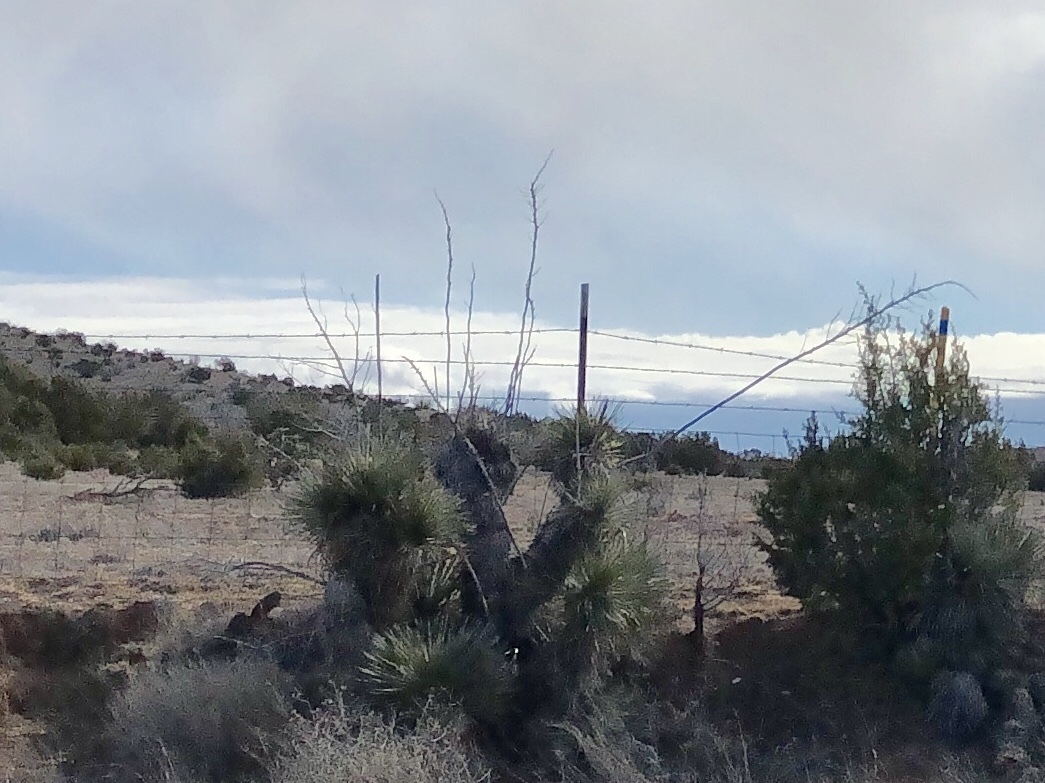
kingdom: Plantae
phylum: Tracheophyta
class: Liliopsida
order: Asparagales
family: Asparagaceae
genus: Yucca
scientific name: Yucca elata
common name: Palmella
